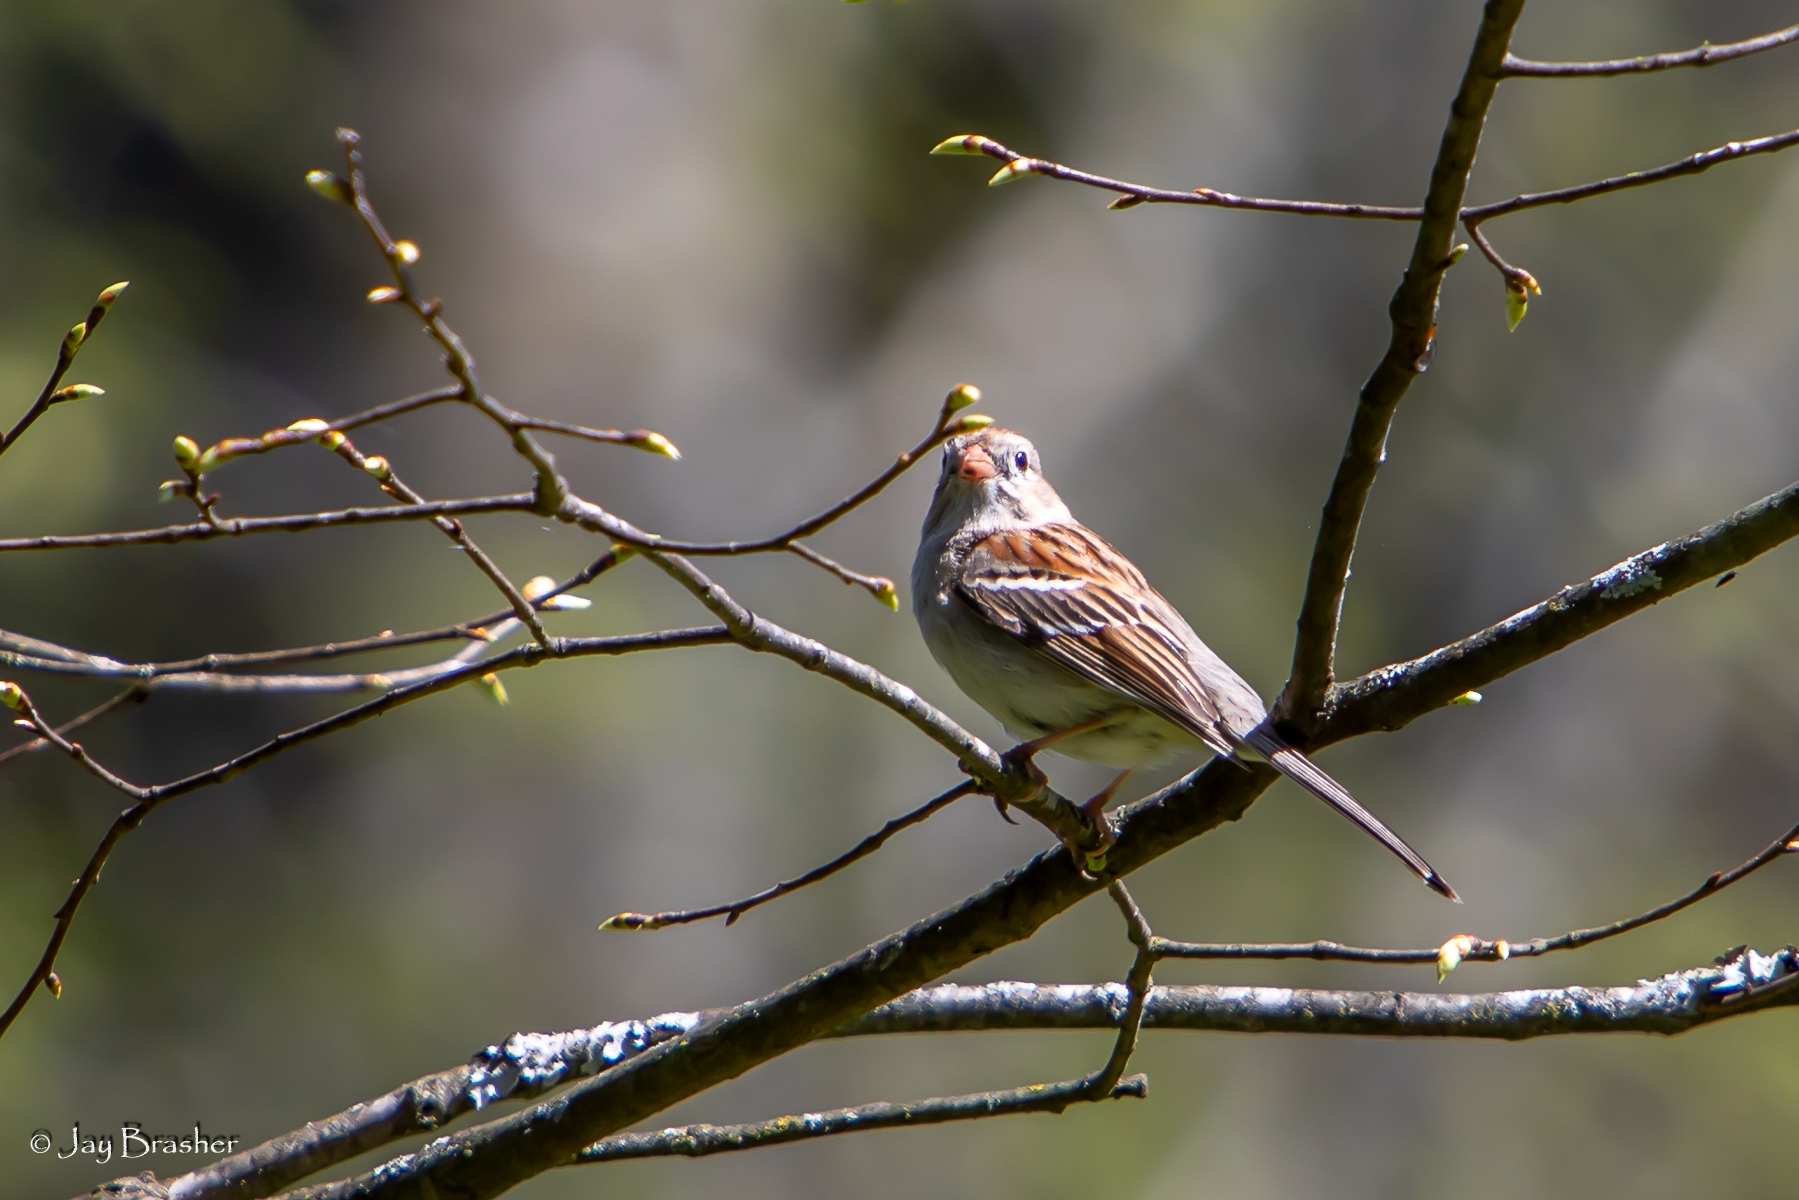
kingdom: Animalia
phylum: Chordata
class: Aves
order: Passeriformes
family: Passerellidae
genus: Spizella
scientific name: Spizella pusilla
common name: Field sparrow
